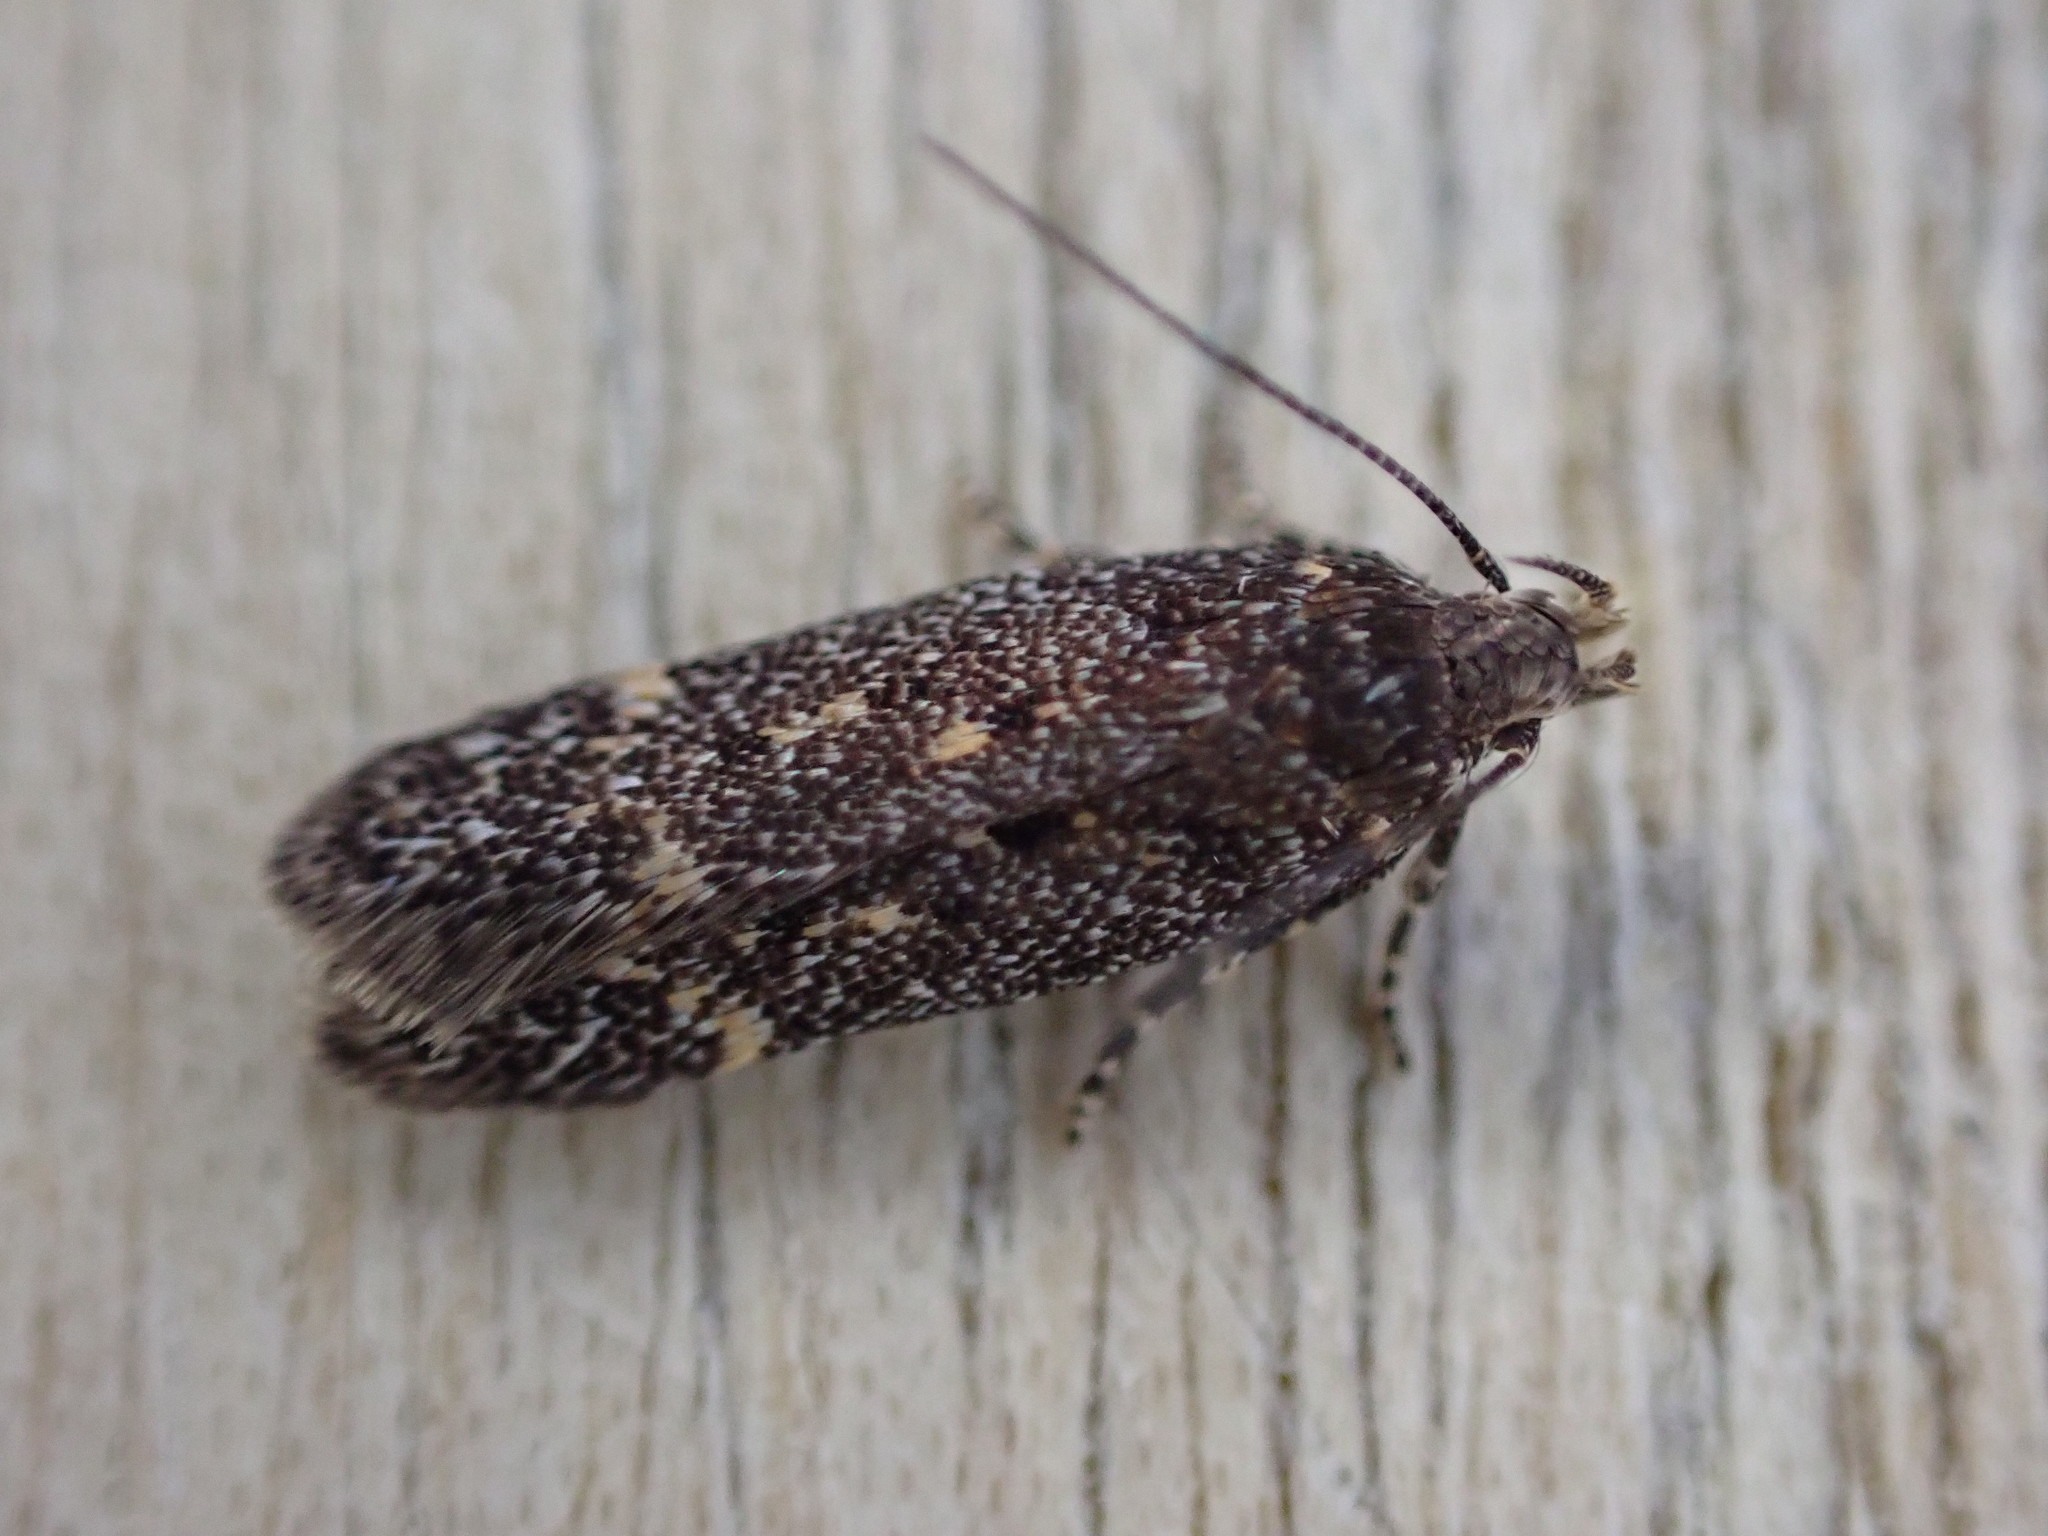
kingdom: Animalia
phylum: Arthropoda
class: Insecta
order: Lepidoptera
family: Gelechiidae
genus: Bryotropha
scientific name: Bryotropha affinis
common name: Dark groundling
